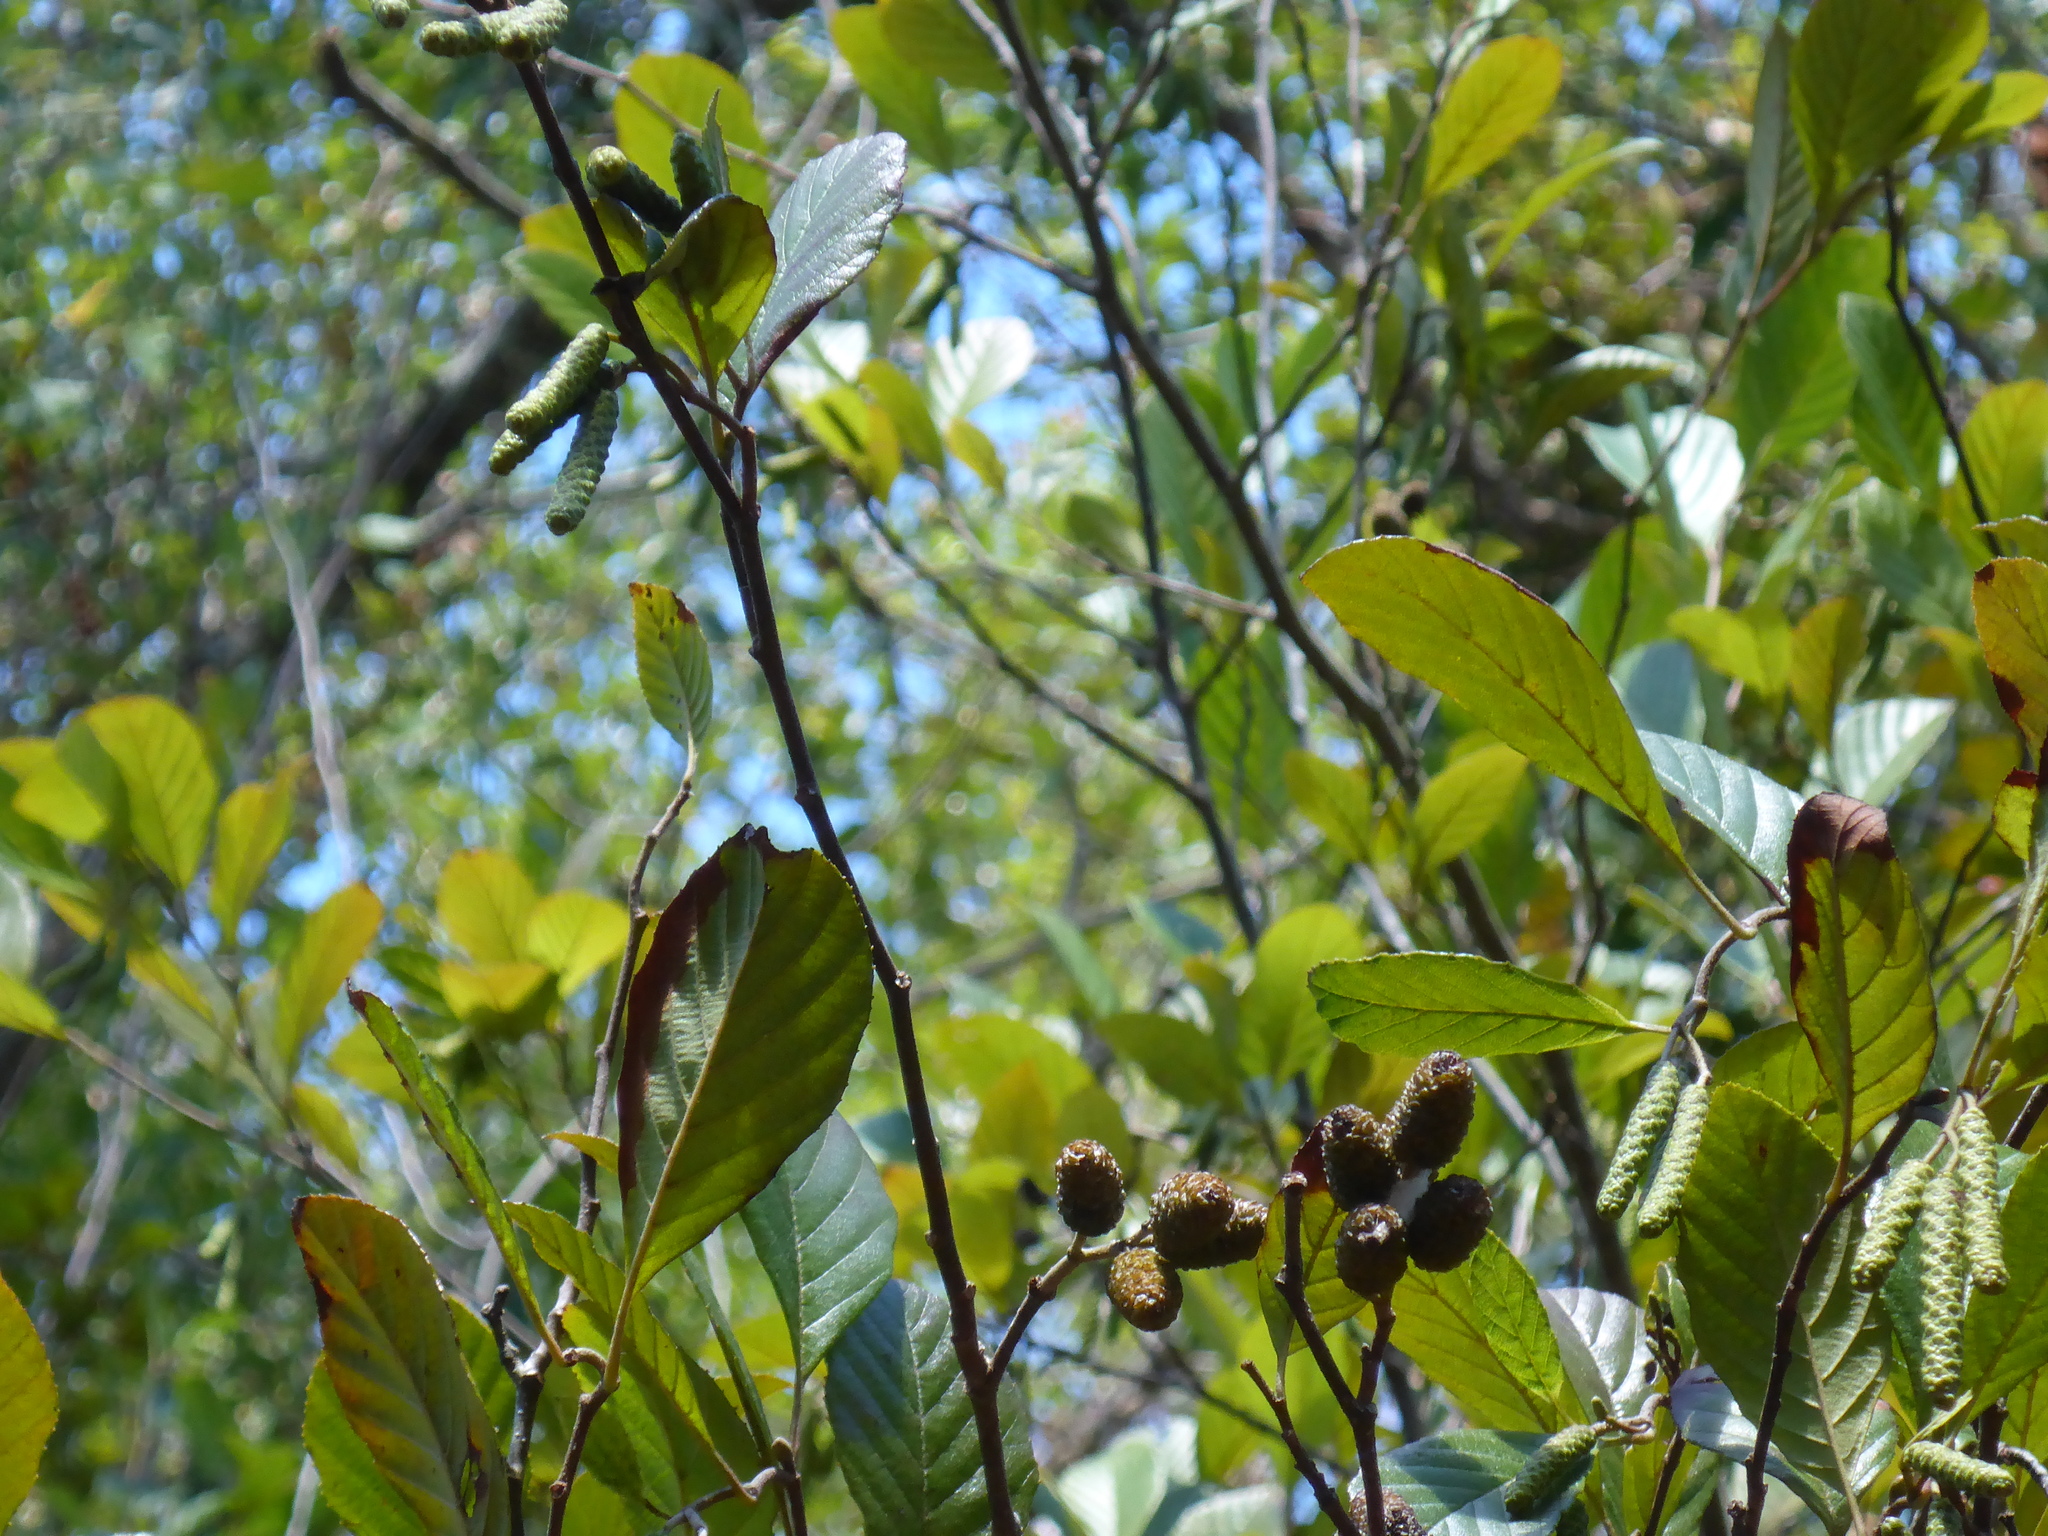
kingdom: Plantae
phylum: Tracheophyta
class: Magnoliopsida
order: Fagales
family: Betulaceae
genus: Alnus
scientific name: Alnus serrulata
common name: Hazel alder
